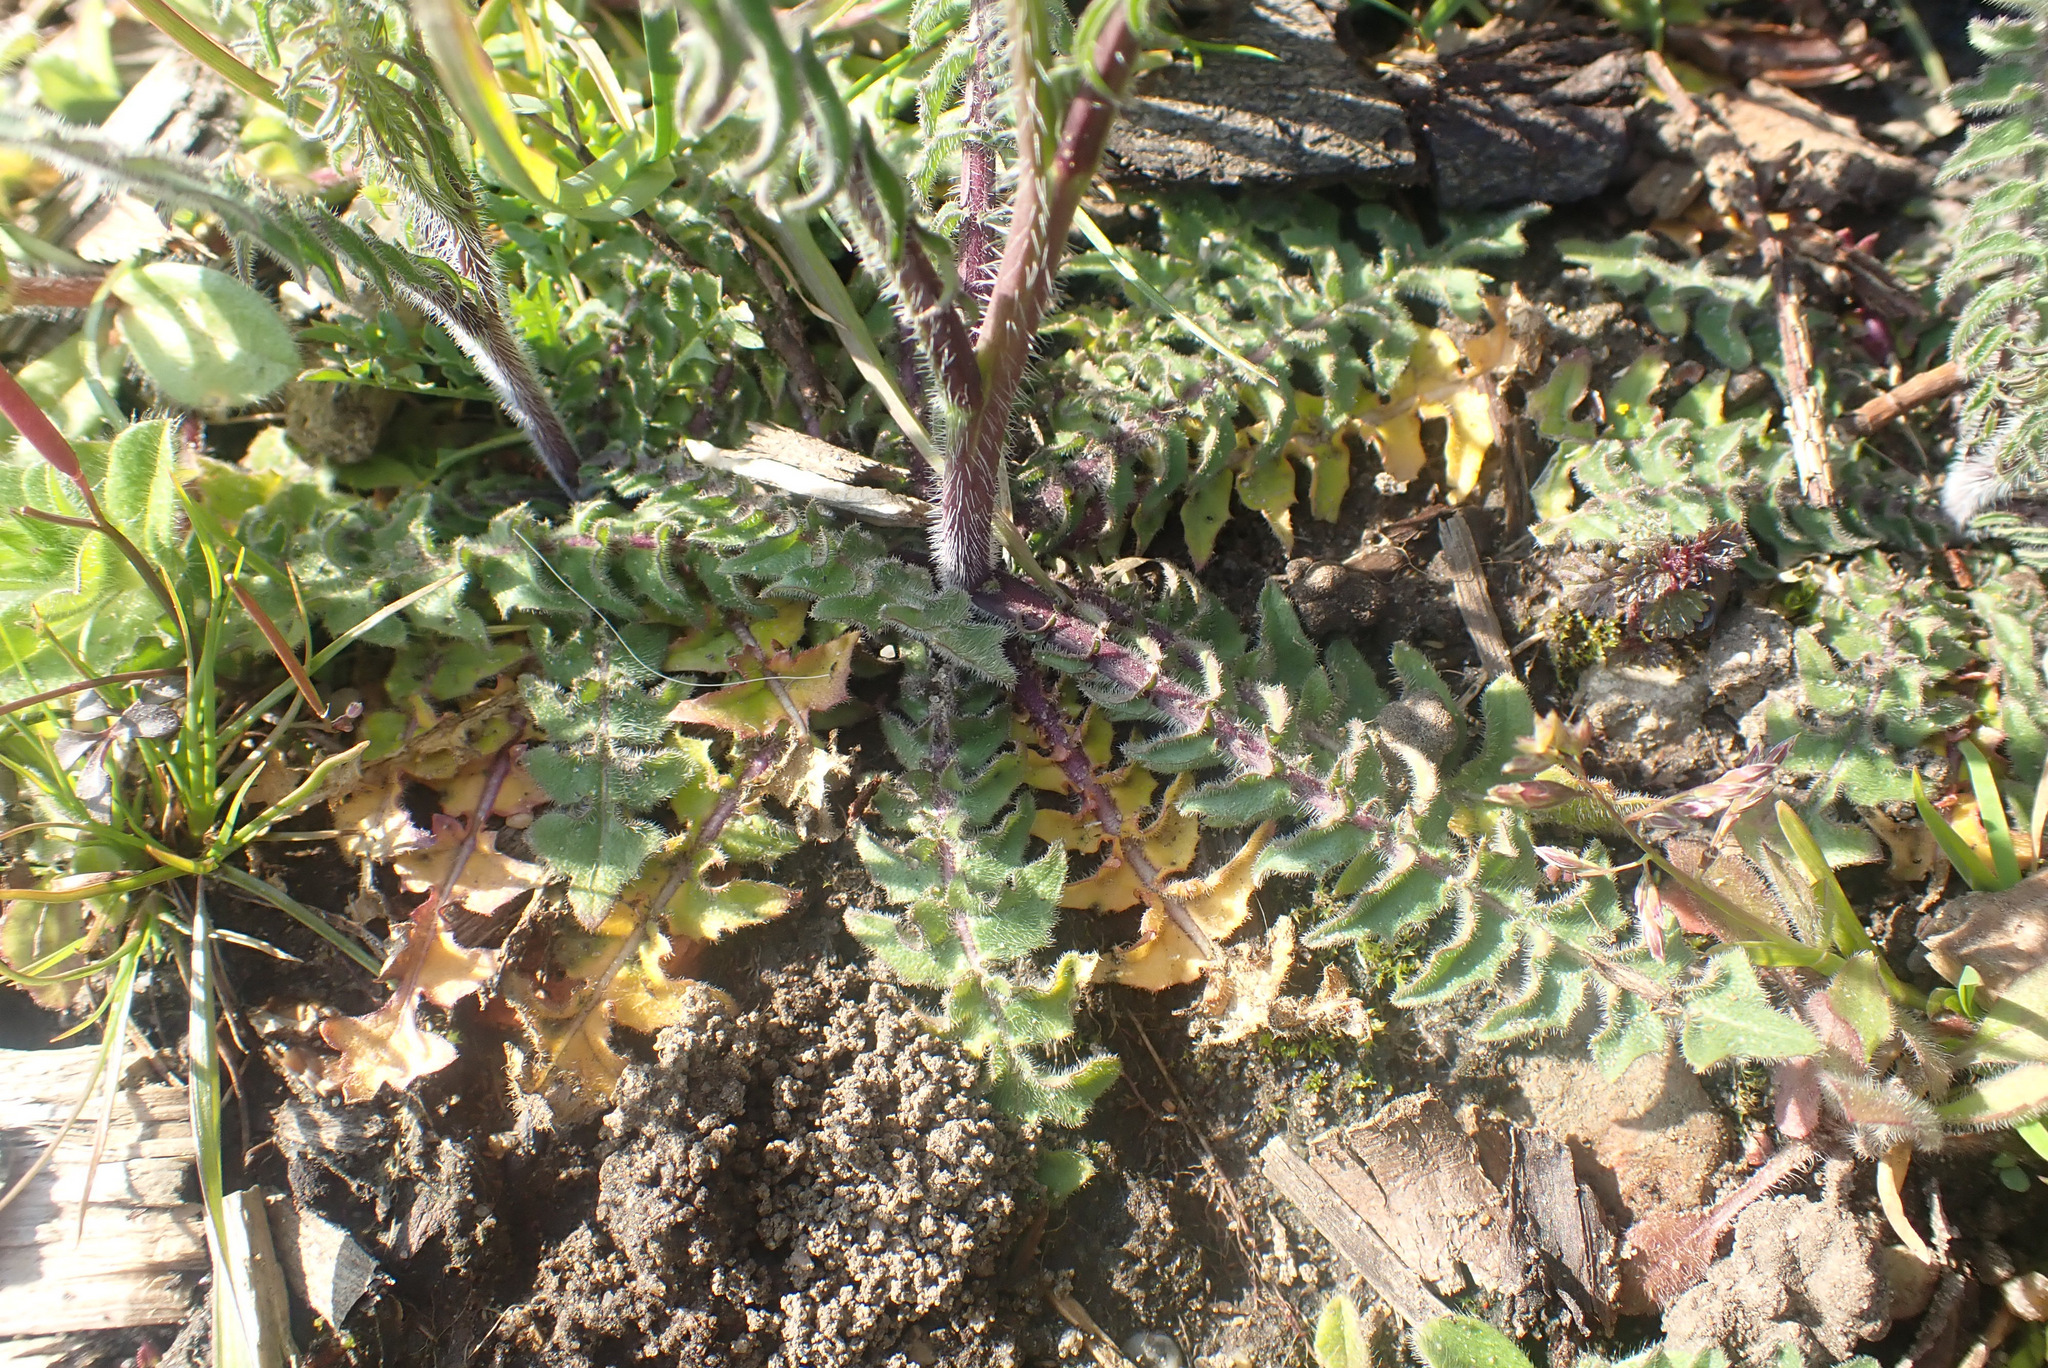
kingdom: Plantae
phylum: Tracheophyta
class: Magnoliopsida
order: Brassicales
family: Brassicaceae
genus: Sisymbrium
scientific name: Sisymbrium altissimum
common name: Tall rocket
